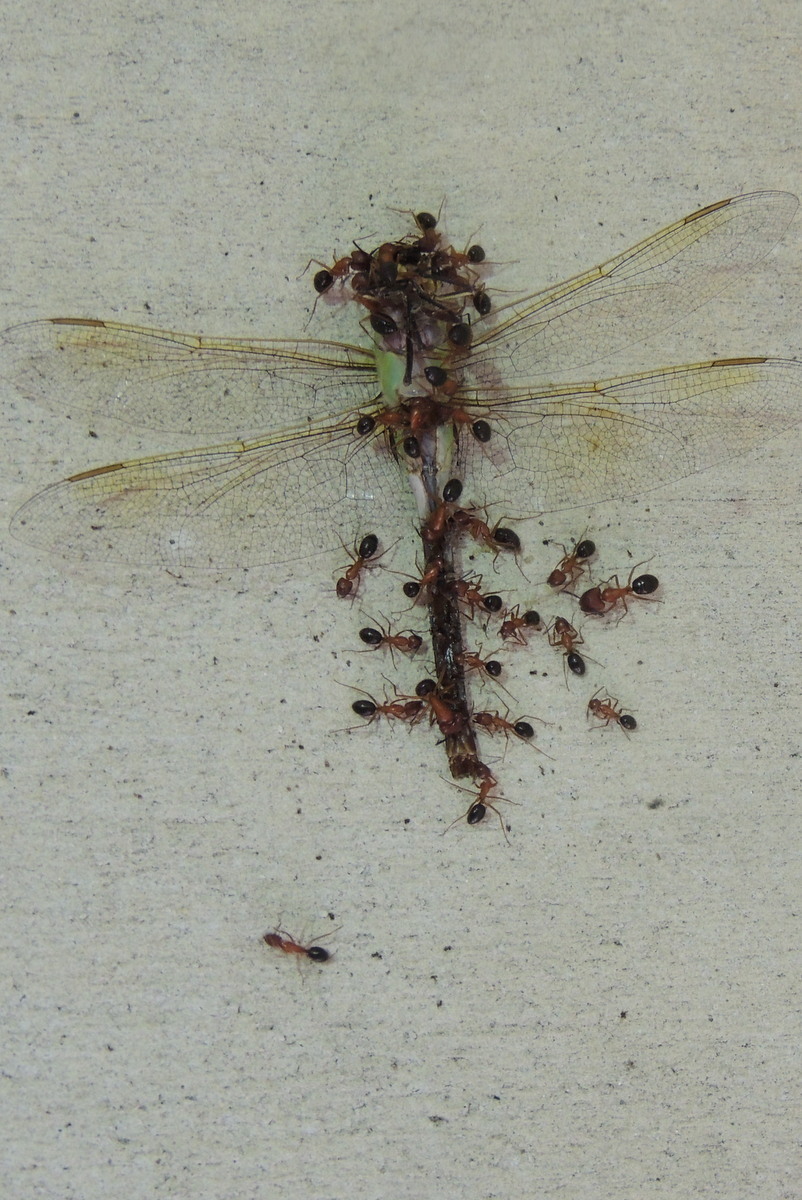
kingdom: Animalia
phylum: Arthropoda
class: Insecta
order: Odonata
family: Aeshnidae
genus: Anax
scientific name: Anax junius
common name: Common green darner
